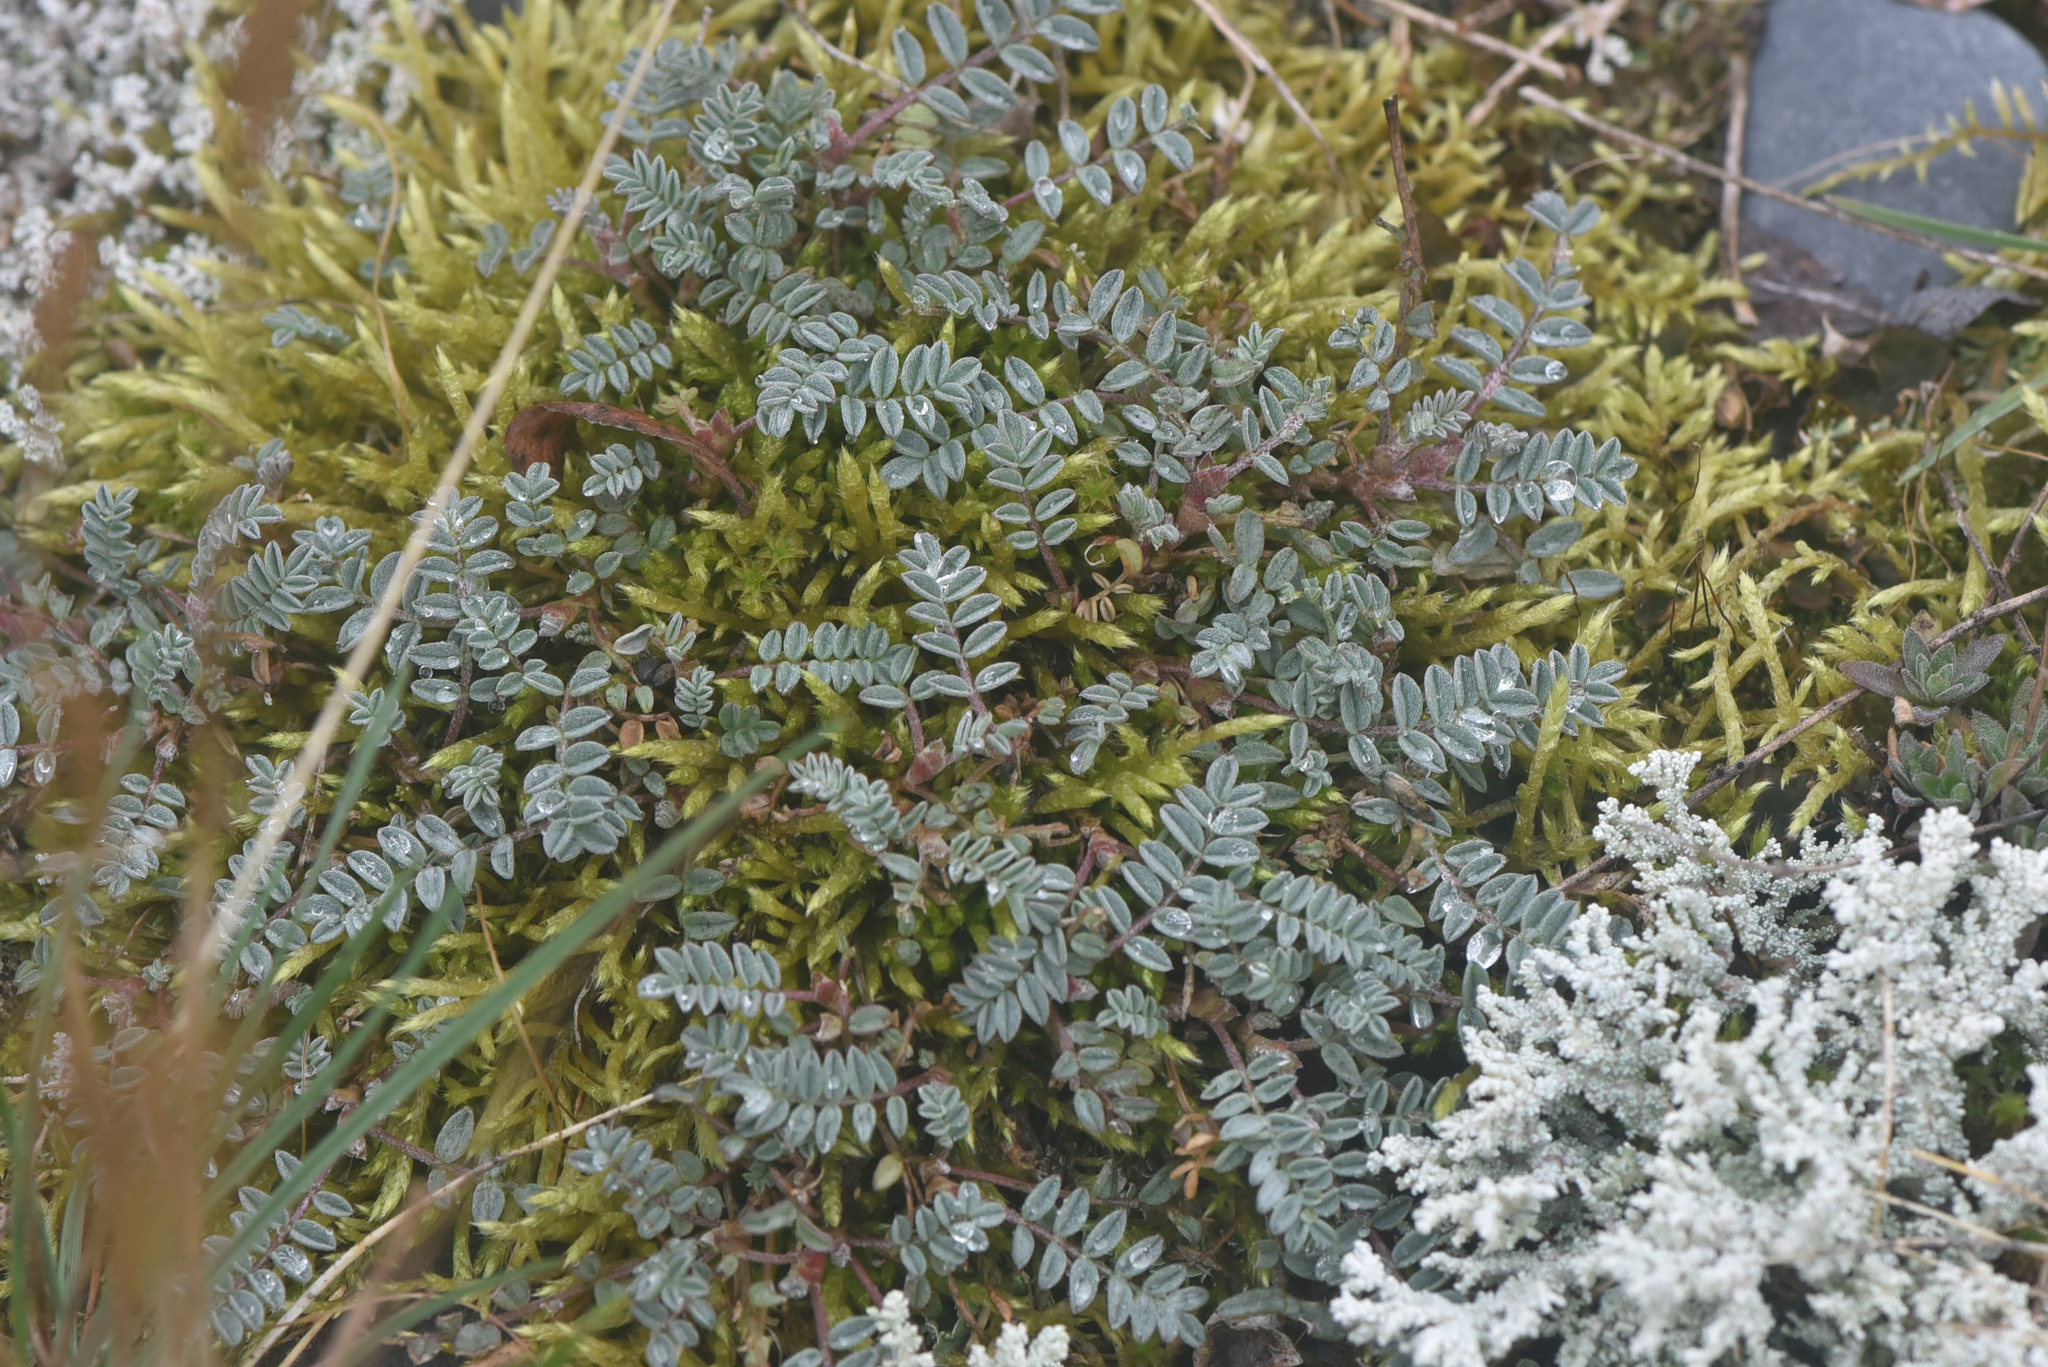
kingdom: Plantae
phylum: Tracheophyta
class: Magnoliopsida
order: Fabales
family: Fabaceae
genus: Astragalus
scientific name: Astragalus nutzotinensis
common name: Nutzotin milk-vetch
